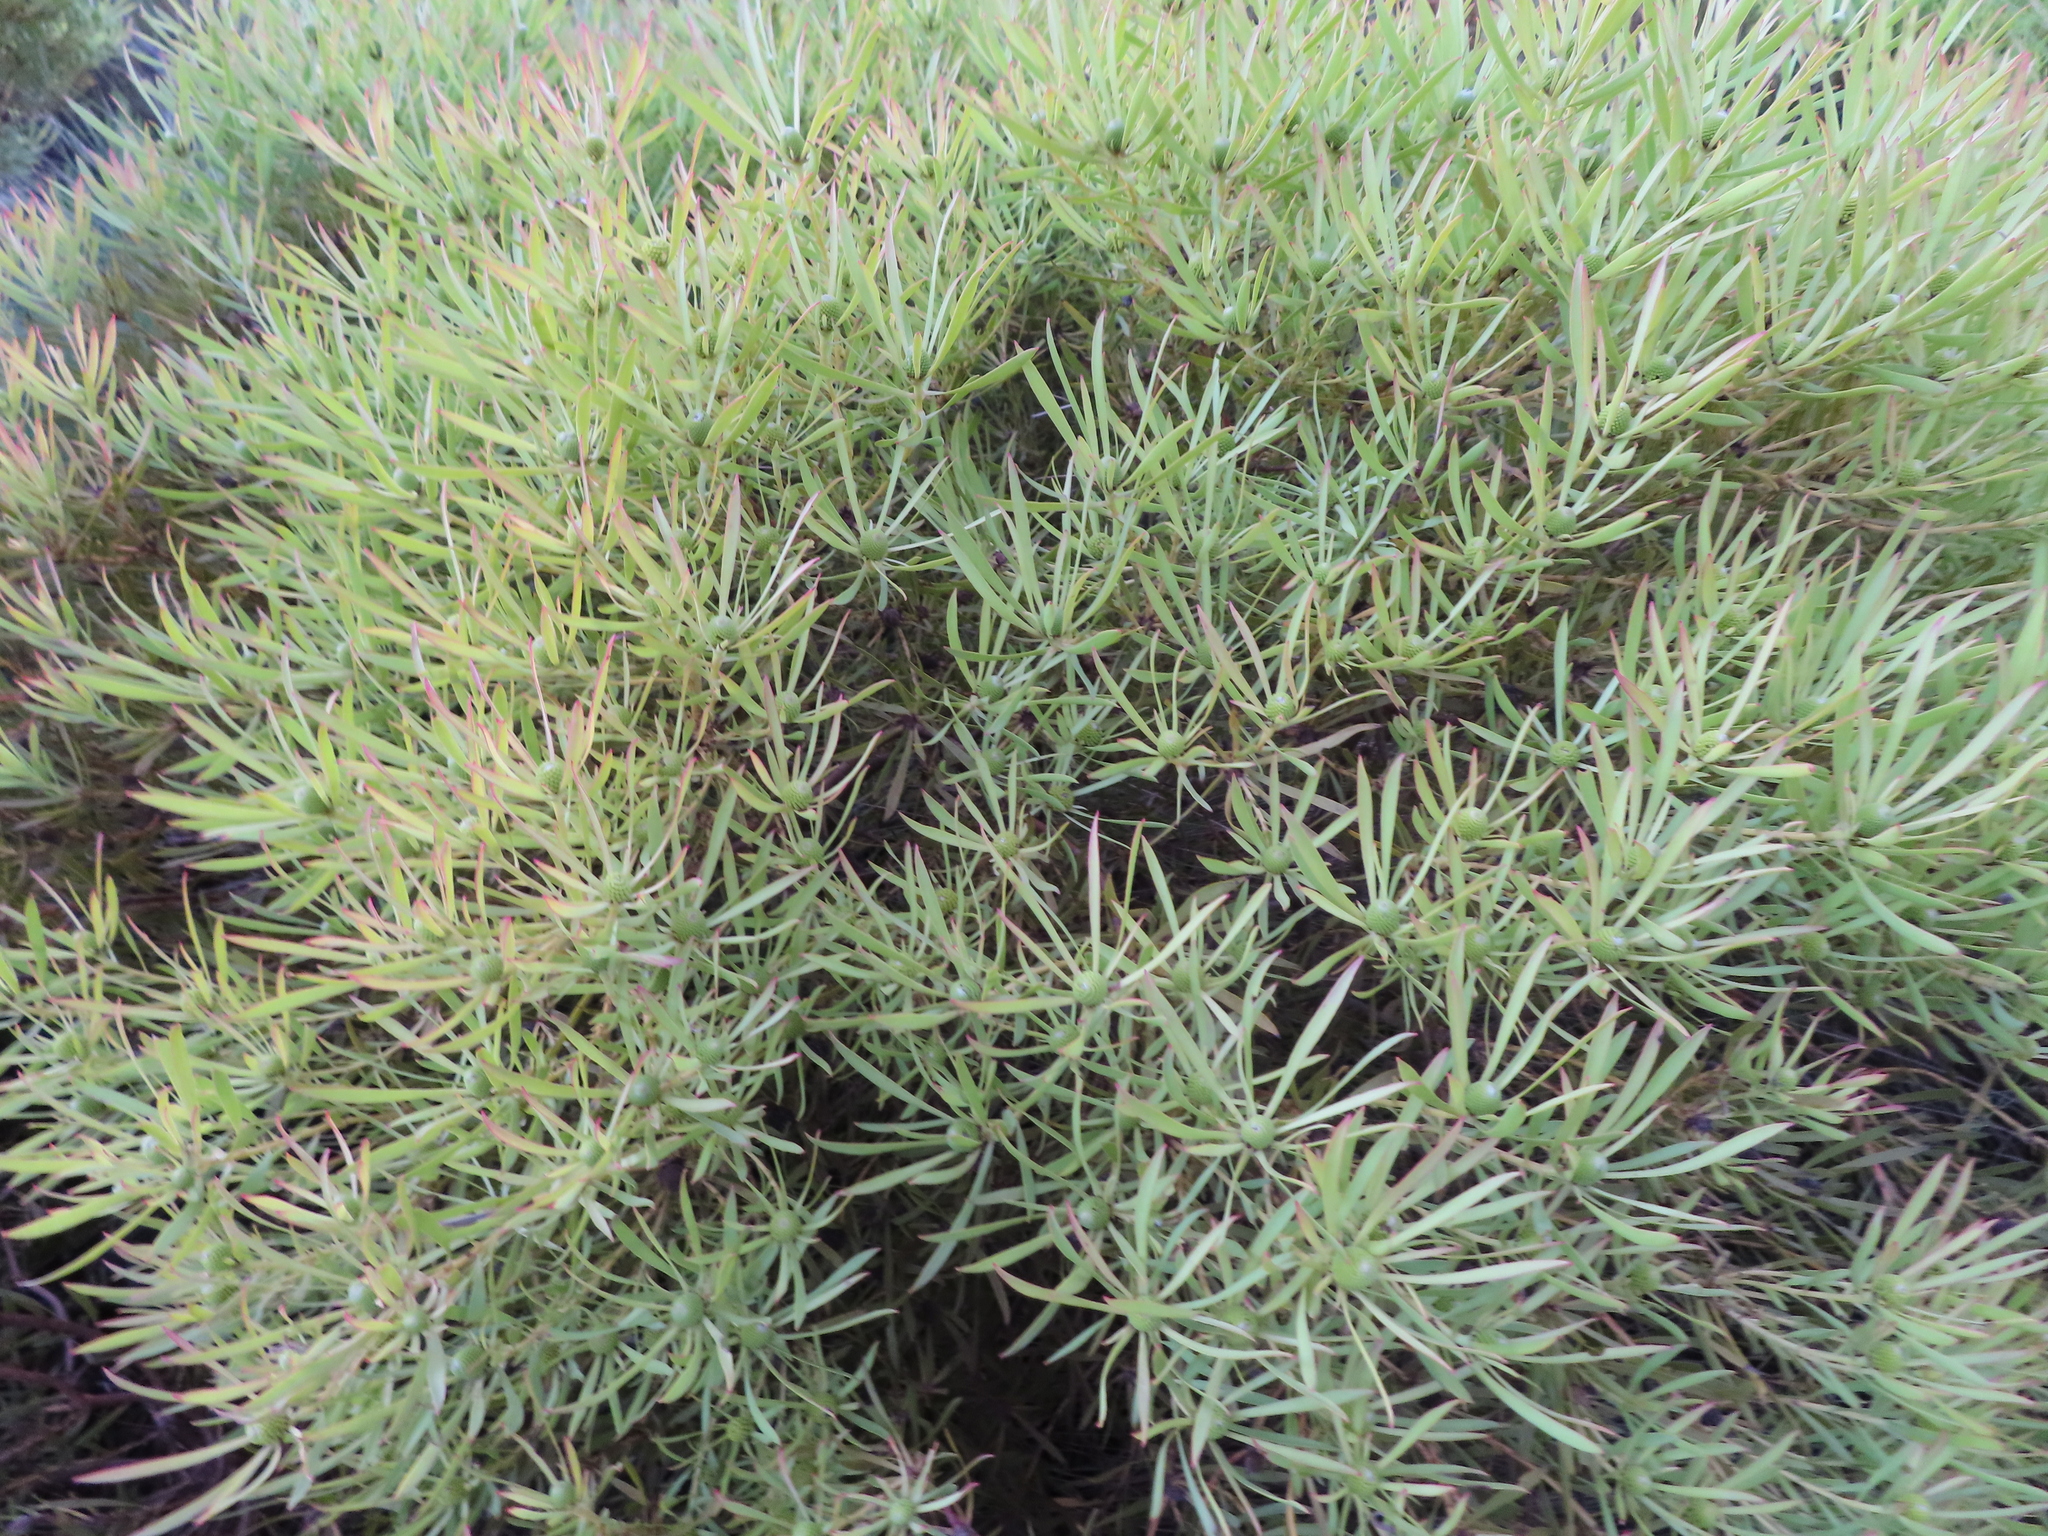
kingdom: Plantae
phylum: Tracheophyta
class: Magnoliopsida
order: Proteales
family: Proteaceae
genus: Leucadendron
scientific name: Leucadendron salignum
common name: Common sunshine conebush
